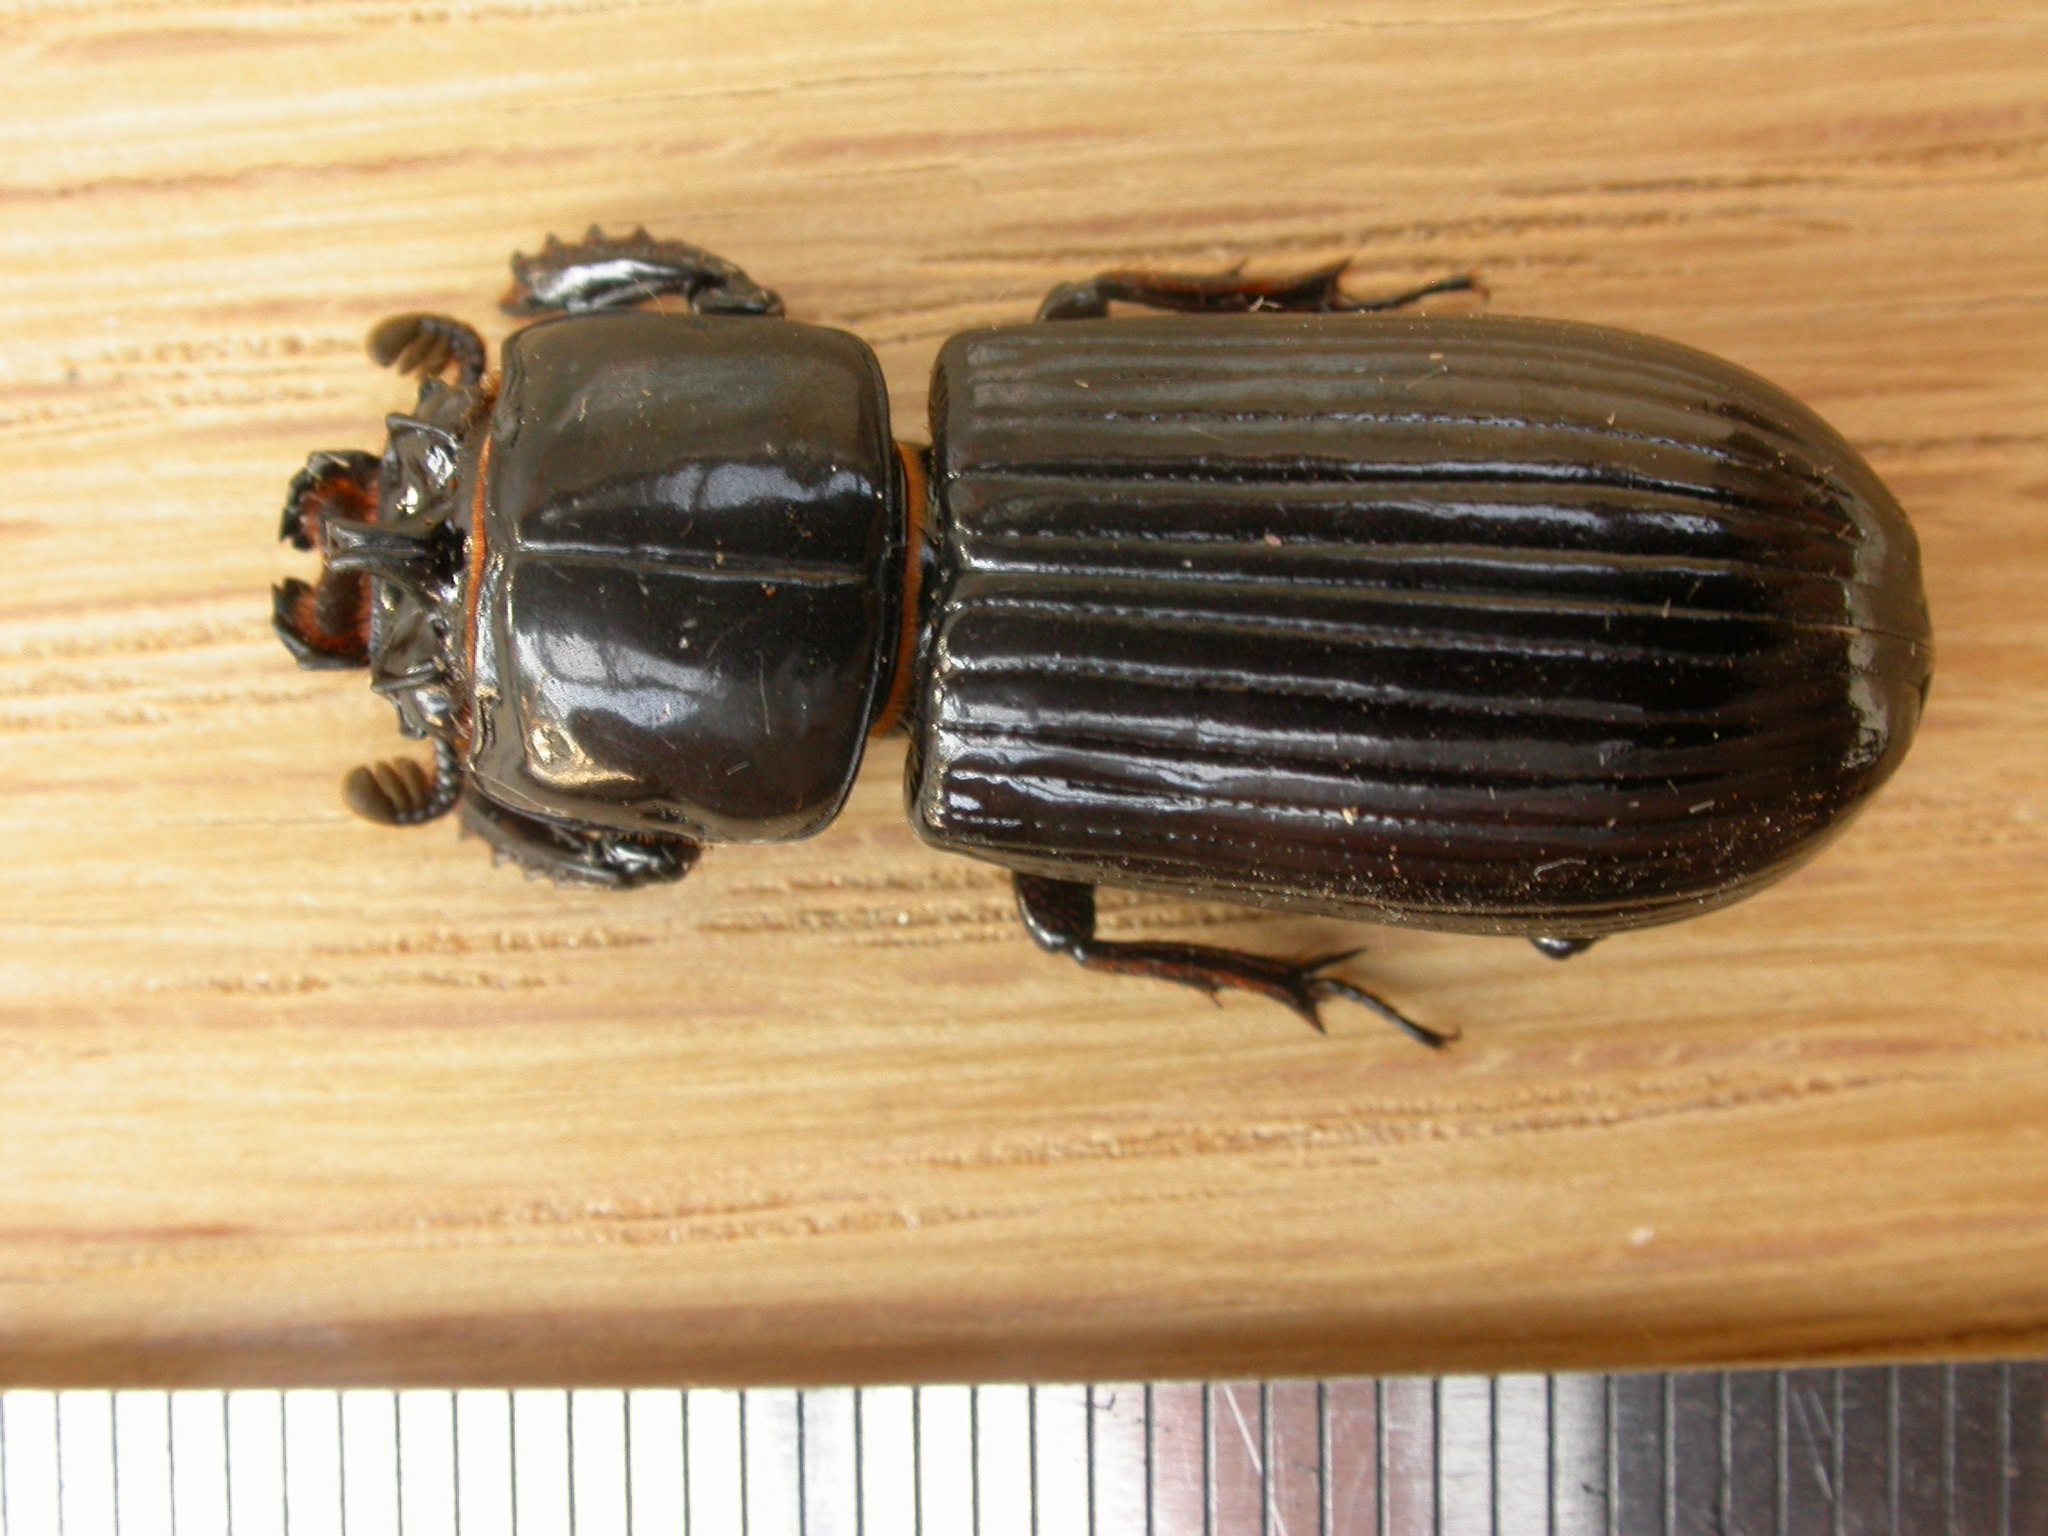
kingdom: Animalia
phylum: Arthropoda
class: Insecta
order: Coleoptera
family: Passalidae
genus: Aulacocyclus
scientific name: Aulacocyclus edentulus
